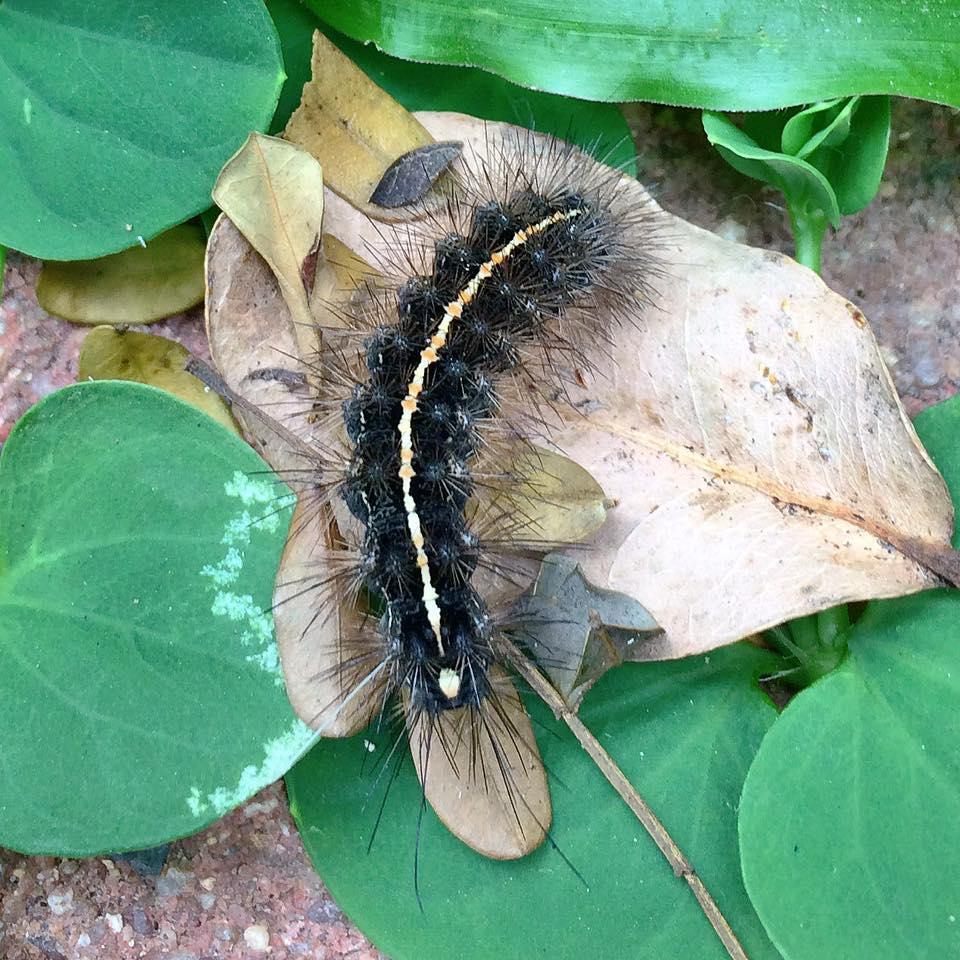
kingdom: Animalia
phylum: Arthropoda
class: Insecta
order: Lepidoptera
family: Erebidae
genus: Ustjuzhania
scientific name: Ustjuzhania lineata
